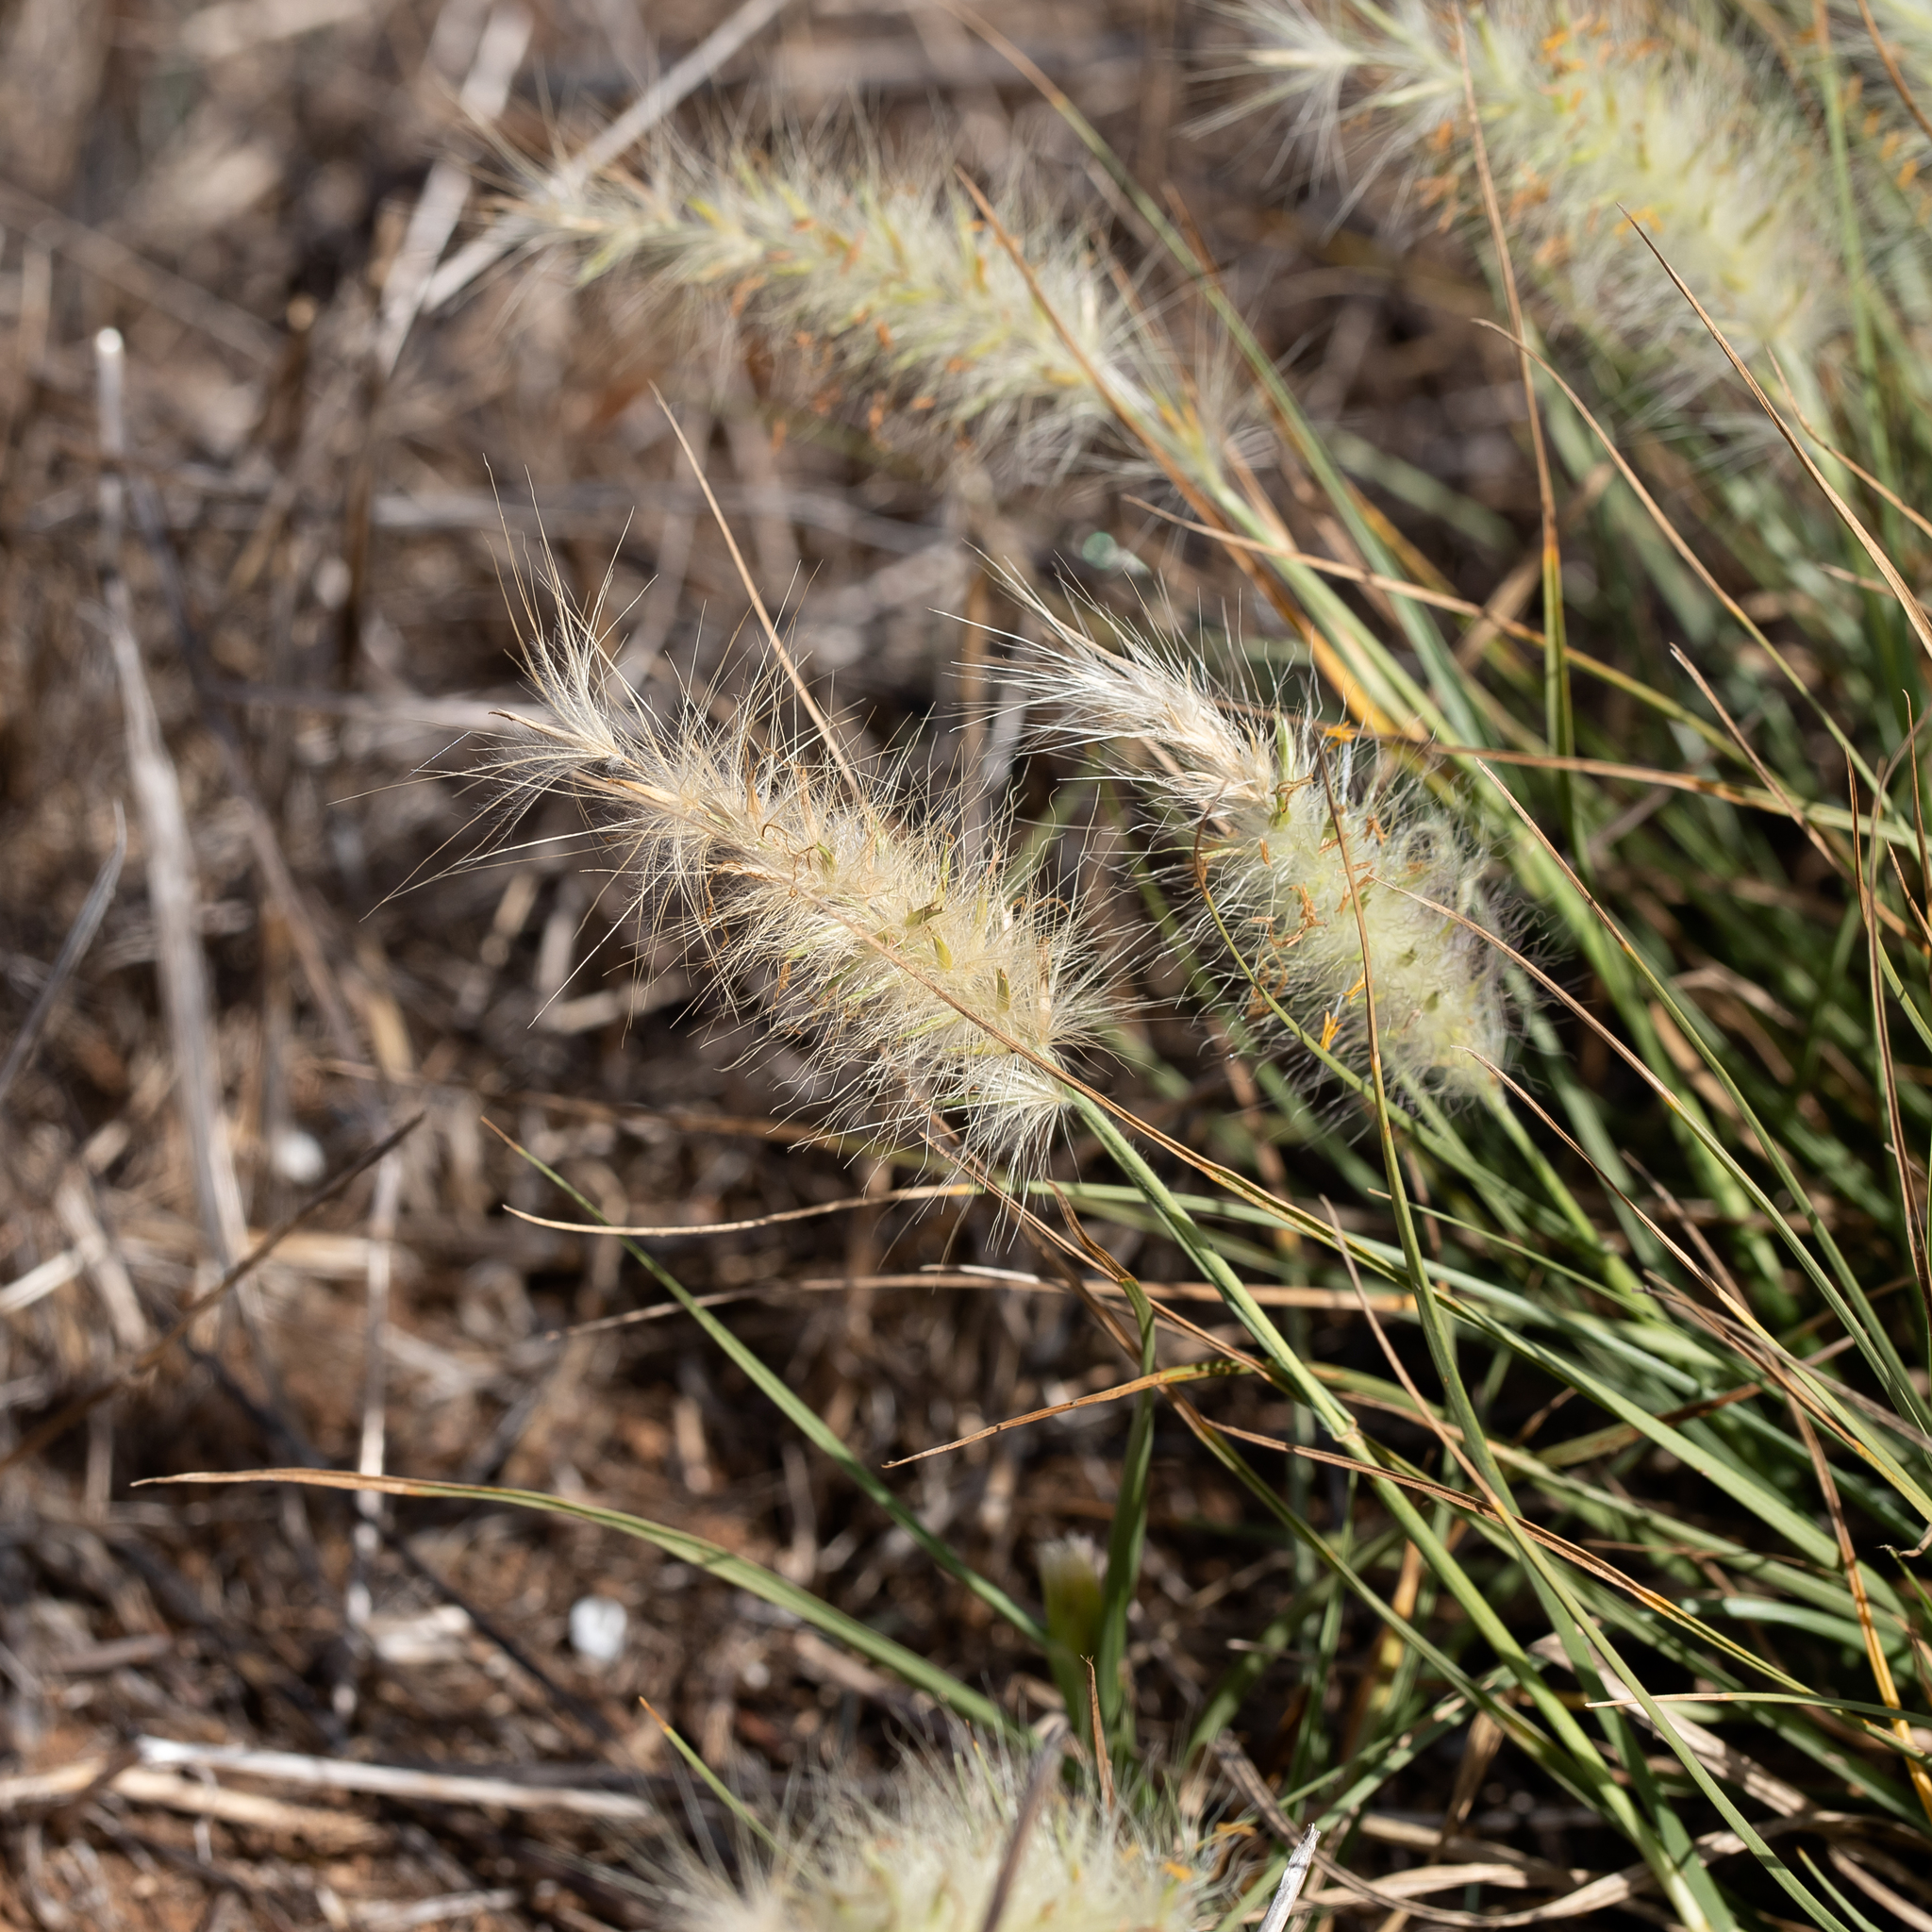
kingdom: Plantae
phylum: Tracheophyta
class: Liliopsida
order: Poales
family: Poaceae
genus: Cenchrus
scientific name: Cenchrus longisetus
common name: Feathertop
